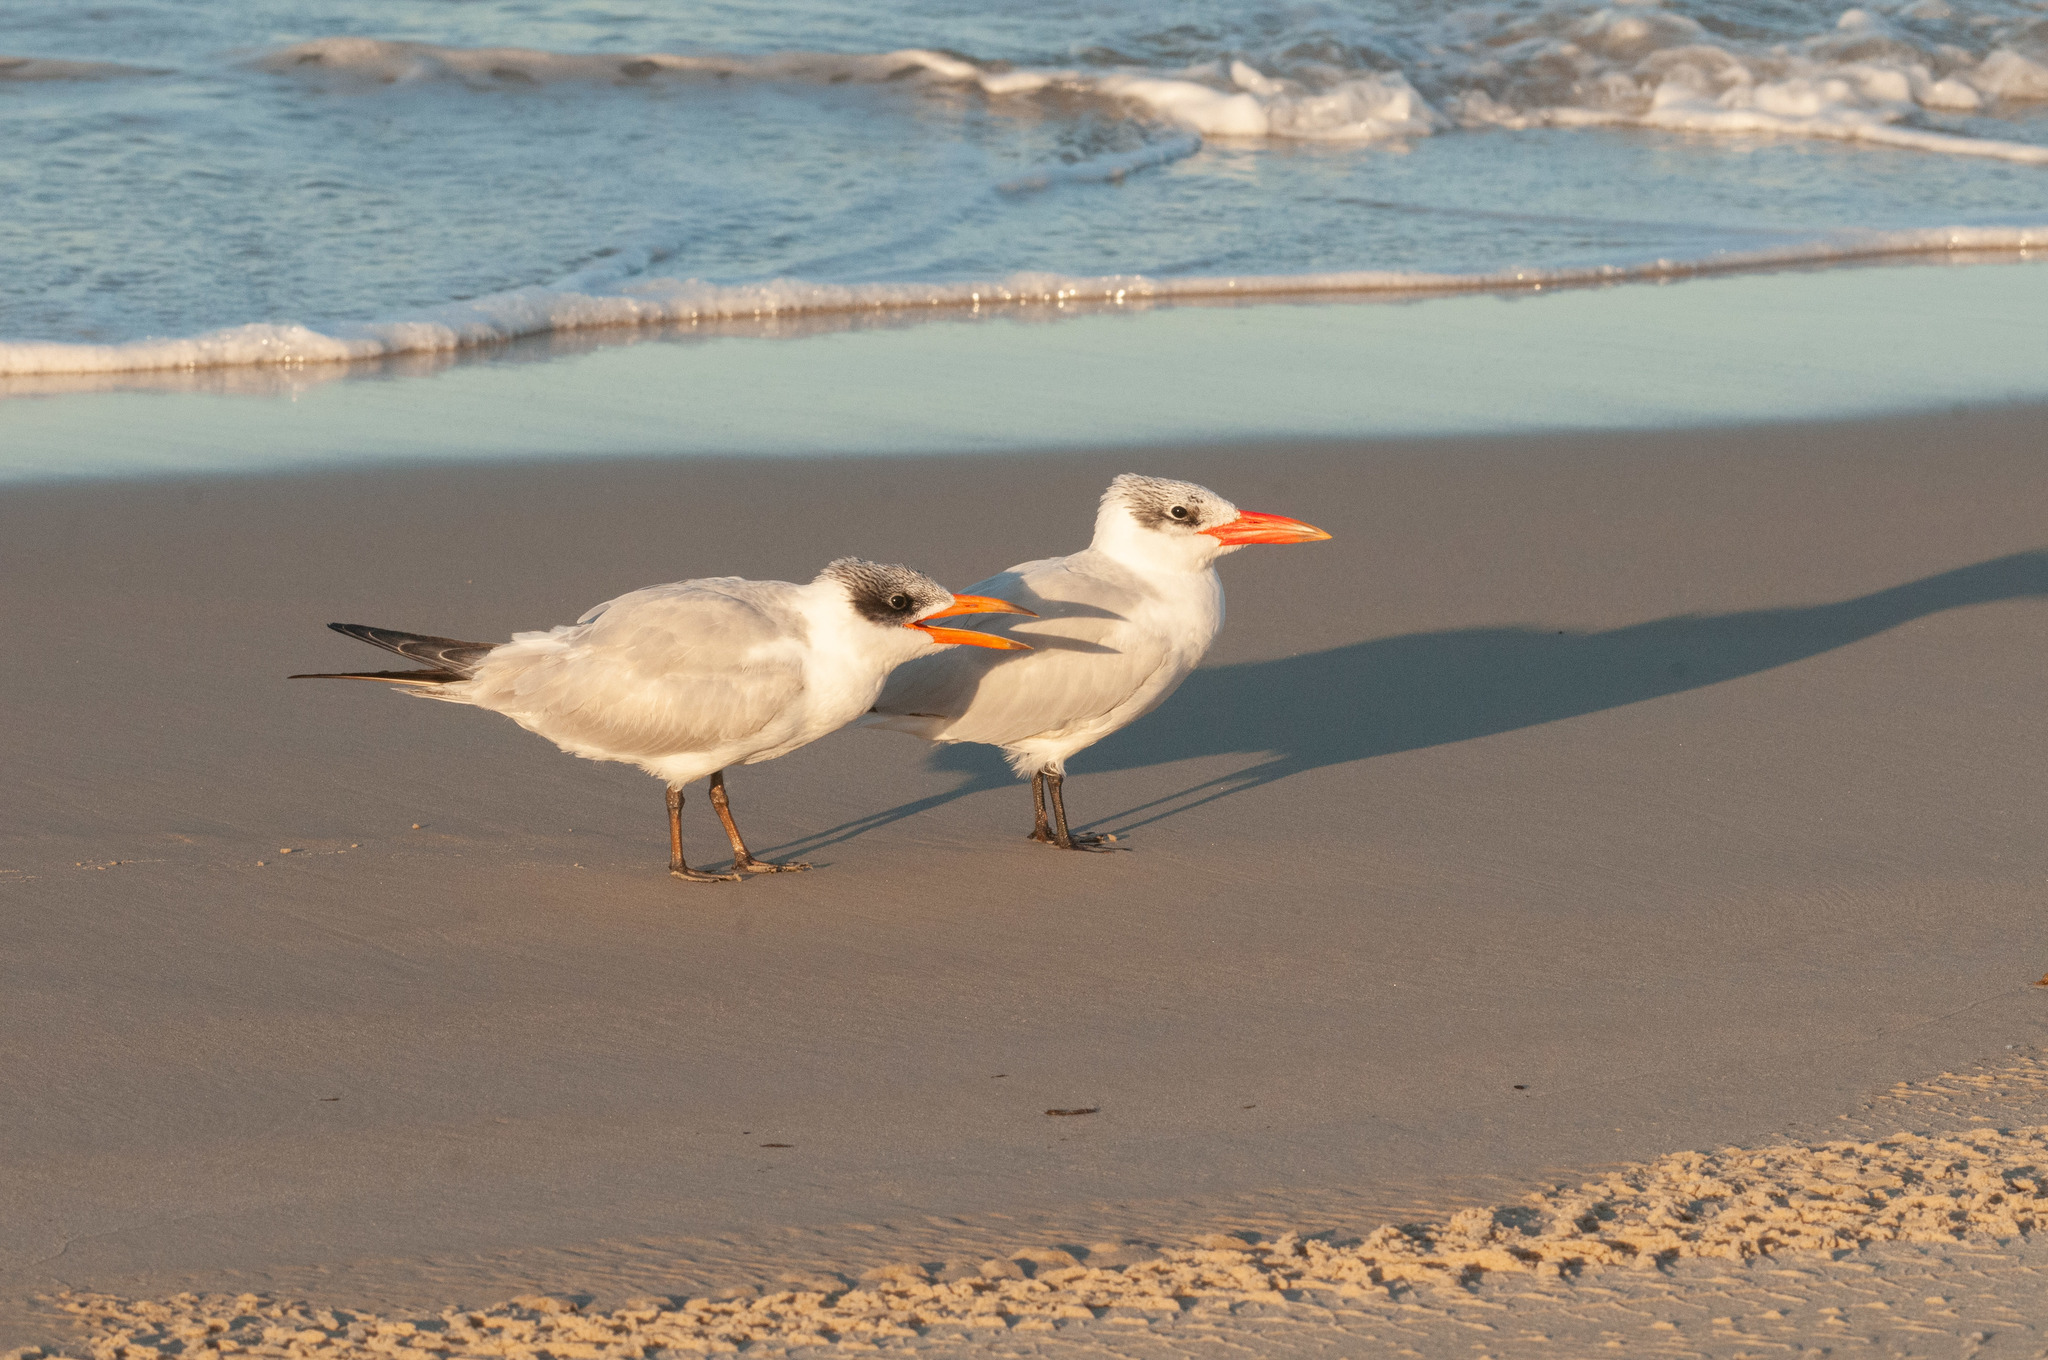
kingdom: Animalia
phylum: Chordata
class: Aves
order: Charadriiformes
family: Laridae
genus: Hydroprogne
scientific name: Hydroprogne caspia
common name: Caspian tern
